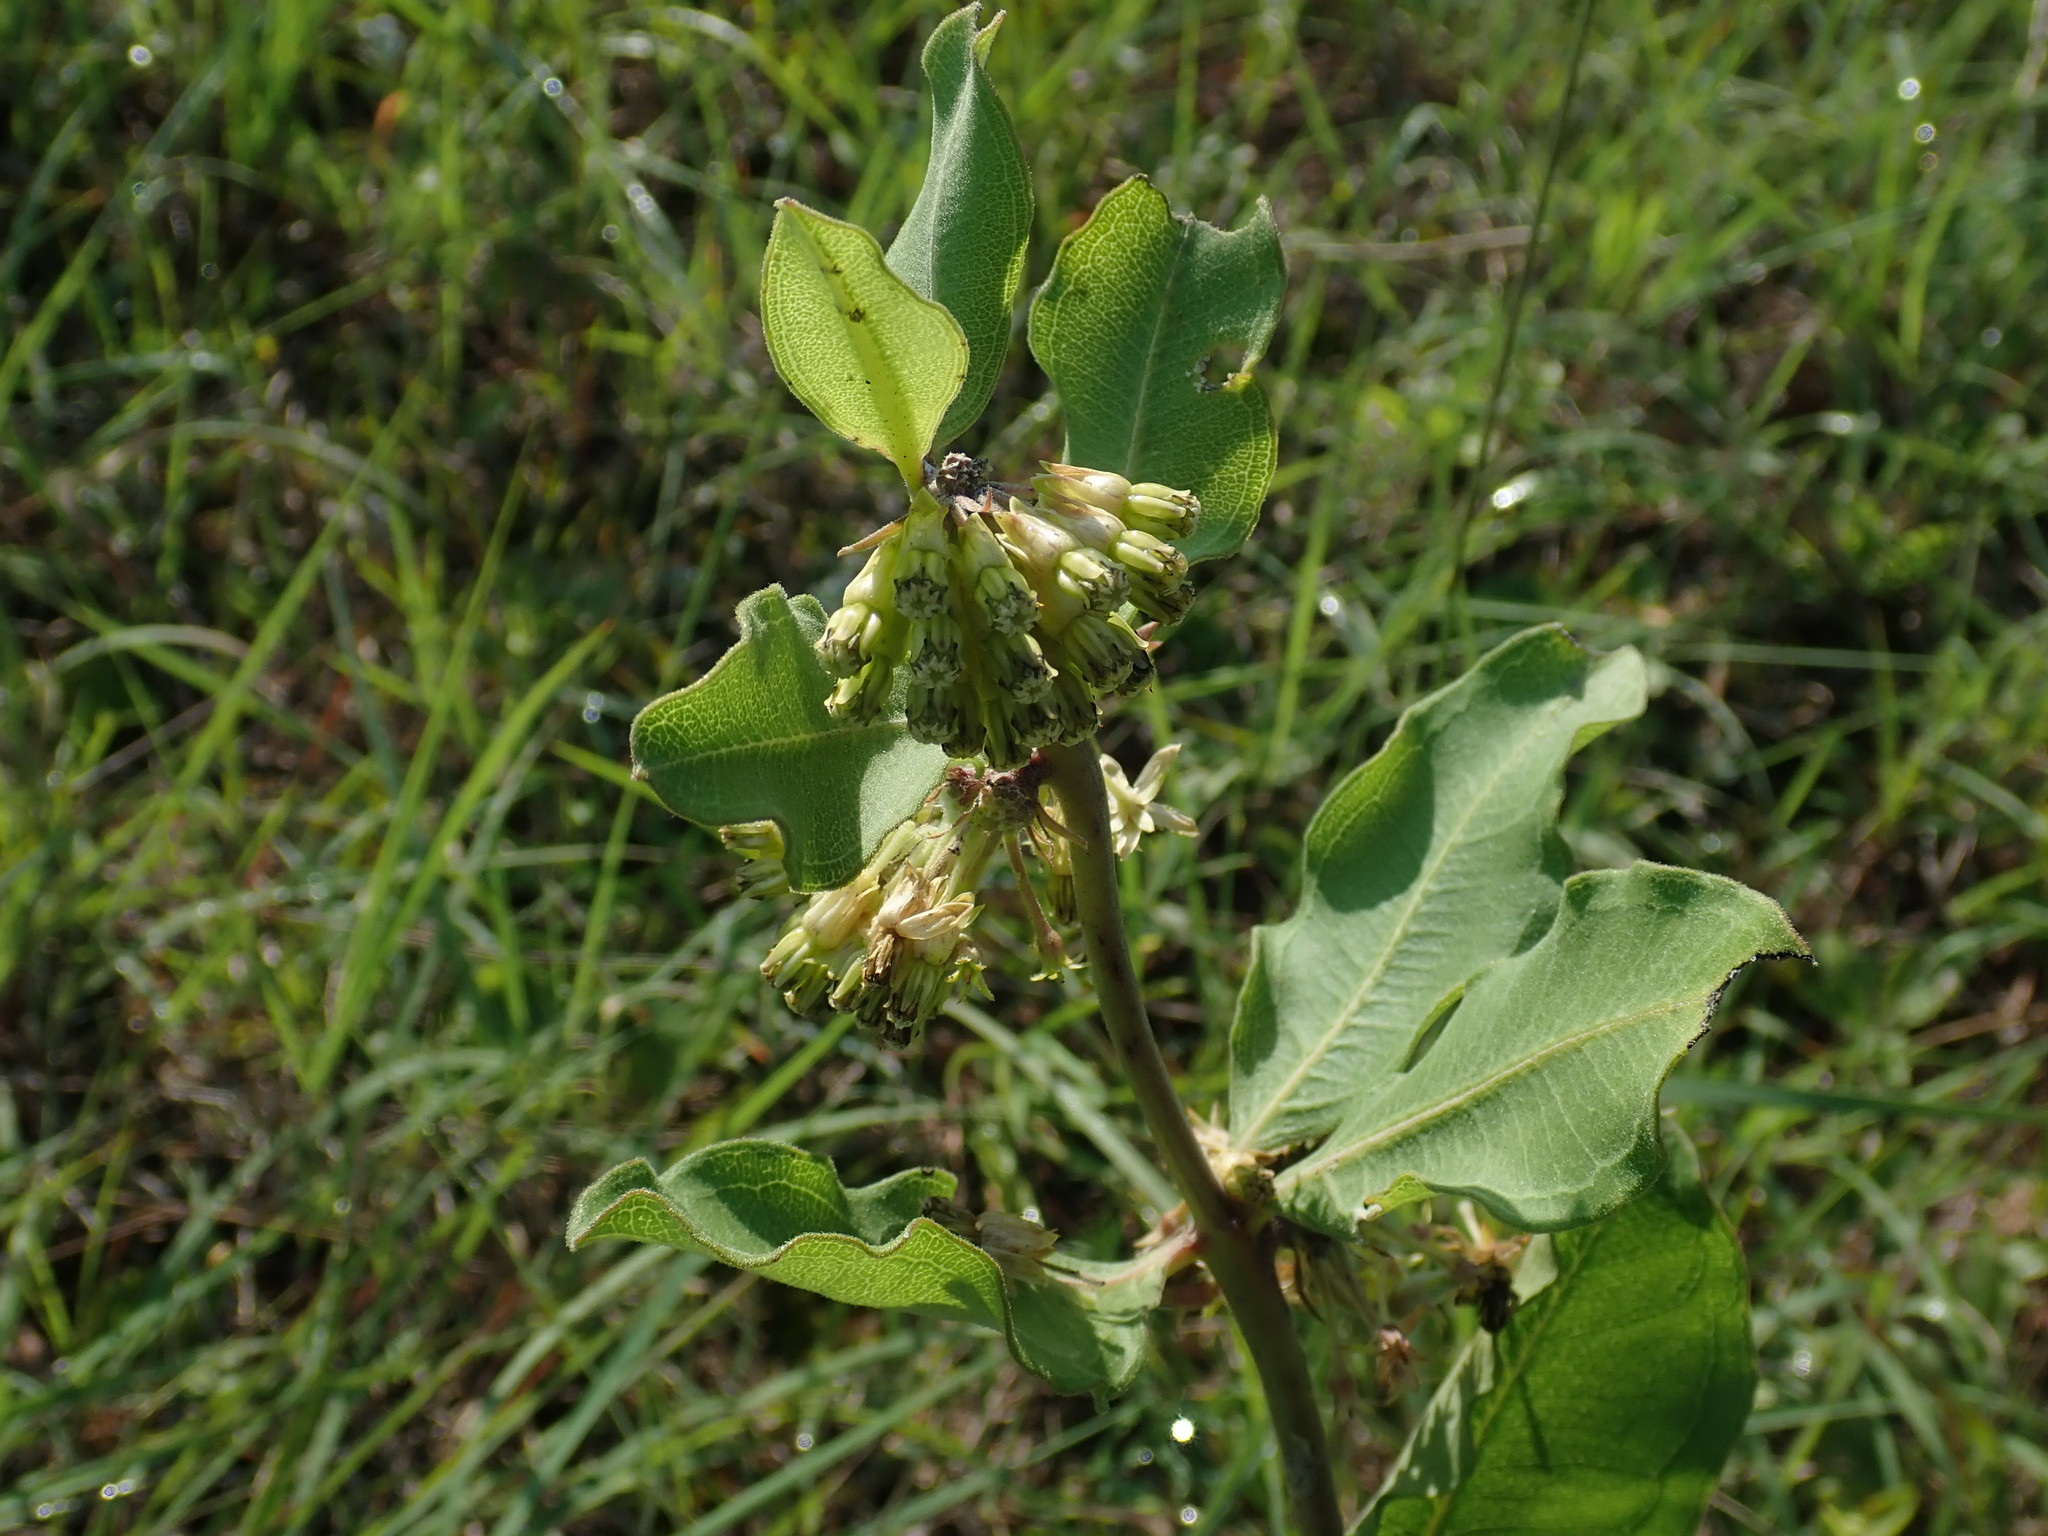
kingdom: Plantae
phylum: Tracheophyta
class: Magnoliopsida
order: Gentianales
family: Apocynaceae
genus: Asclepias
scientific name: Asclepias viridiflora
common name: Green comet milkweed
